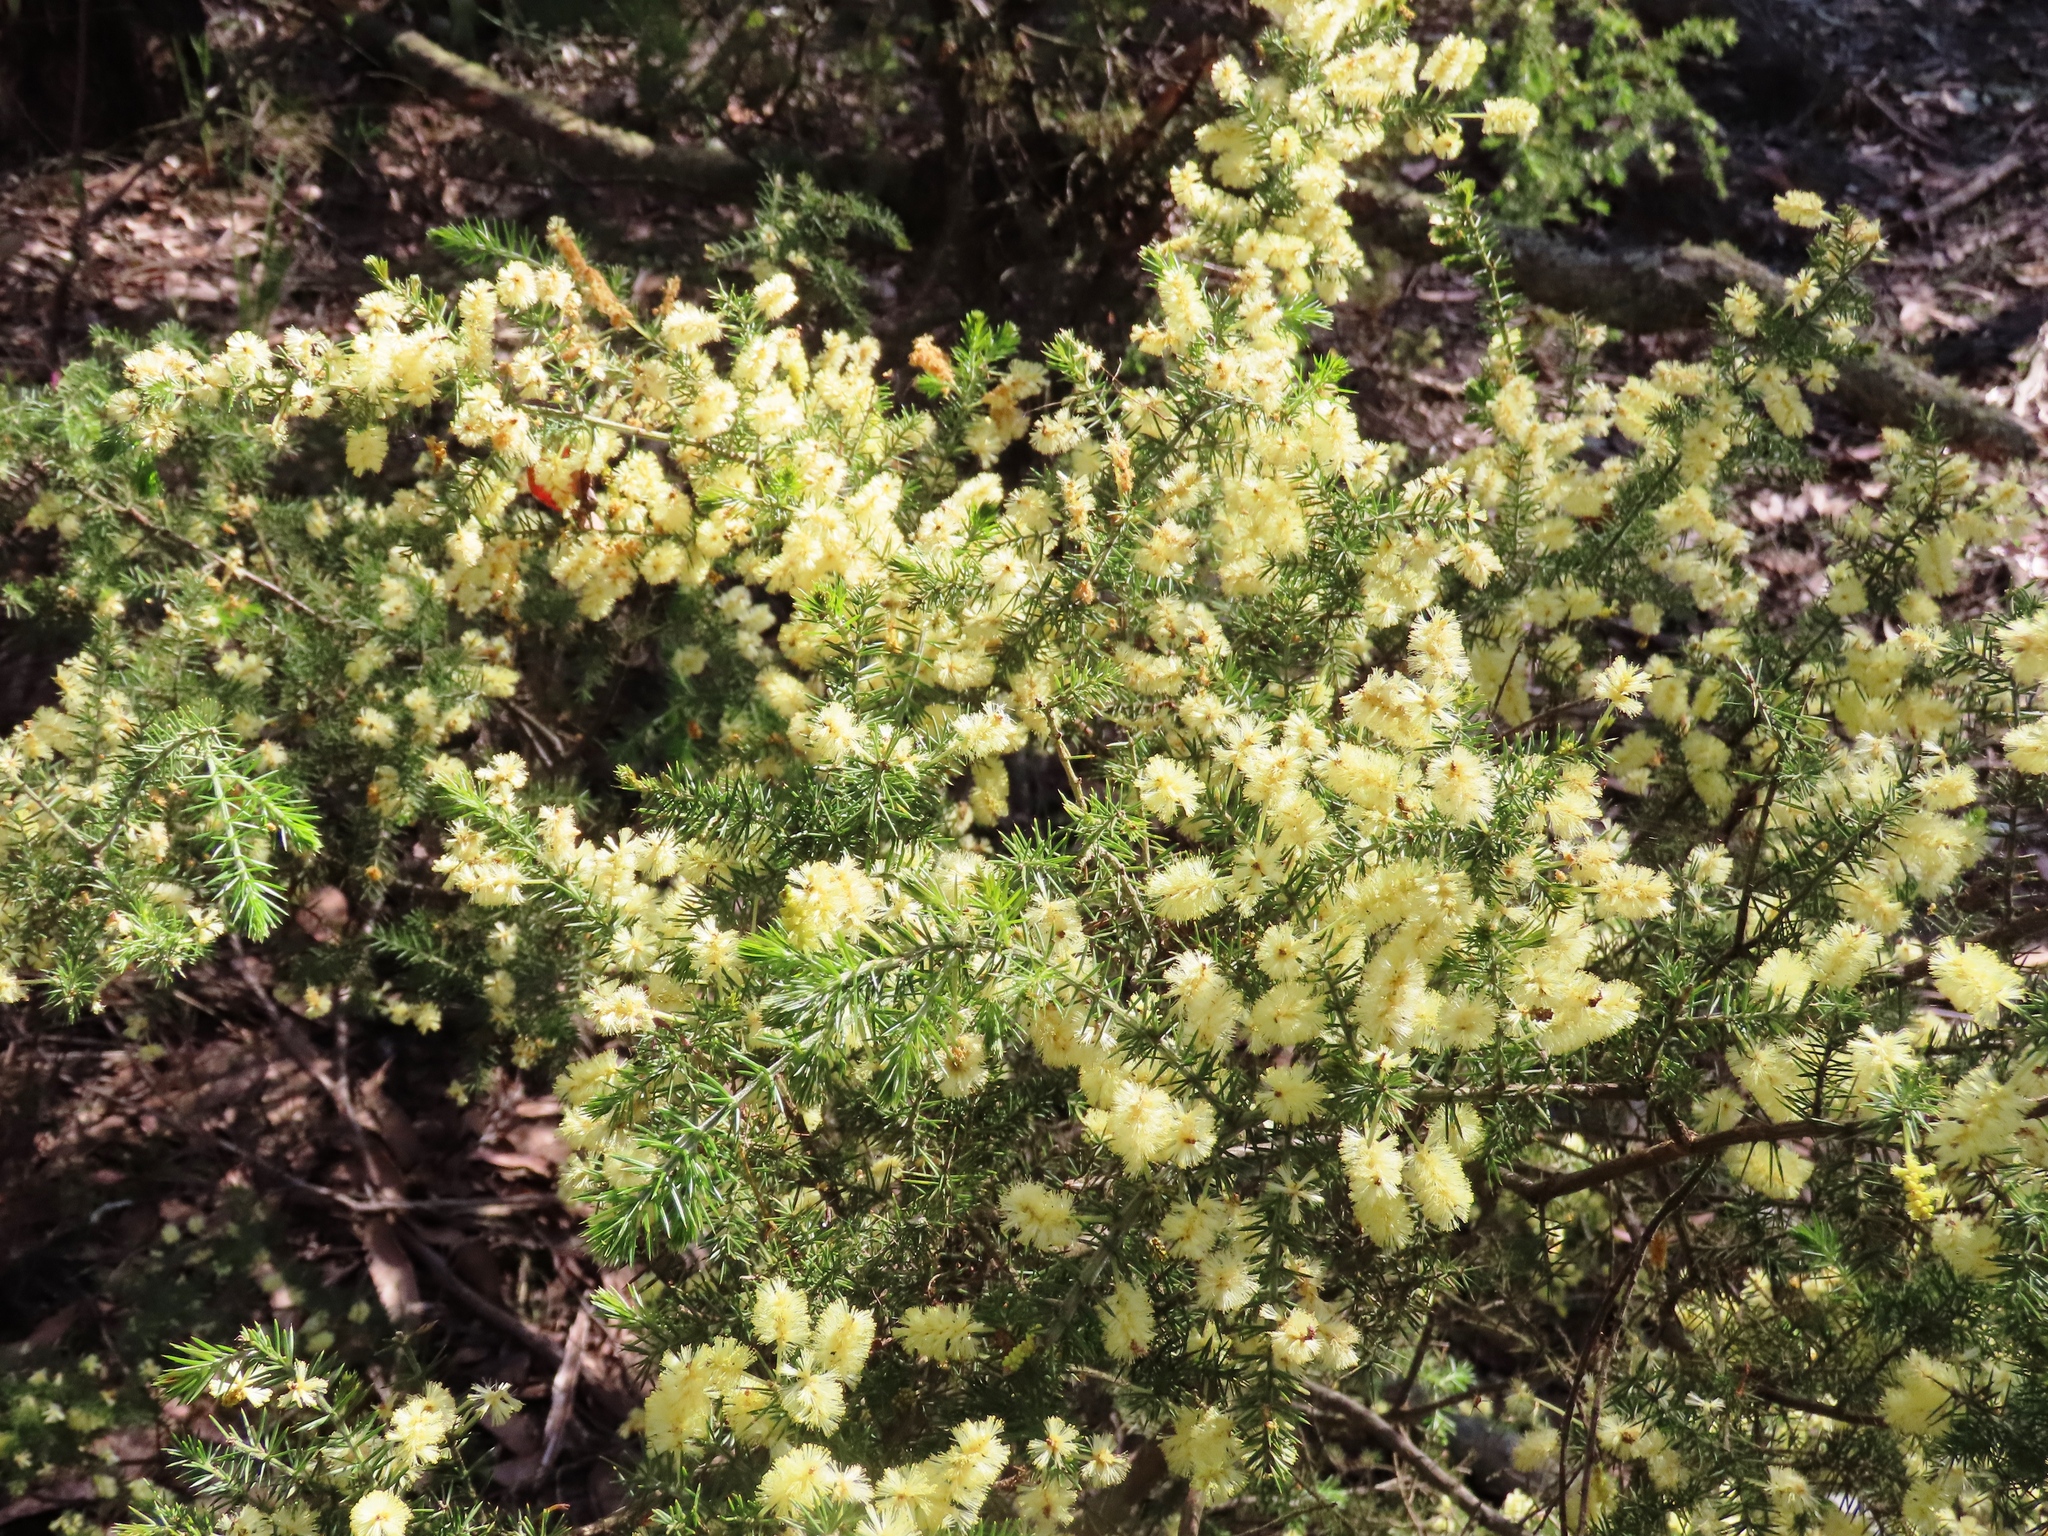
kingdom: Plantae
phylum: Tracheophyta
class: Magnoliopsida
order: Fabales
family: Fabaceae
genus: Acacia
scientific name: Acacia verticillata
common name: Prickly moses
